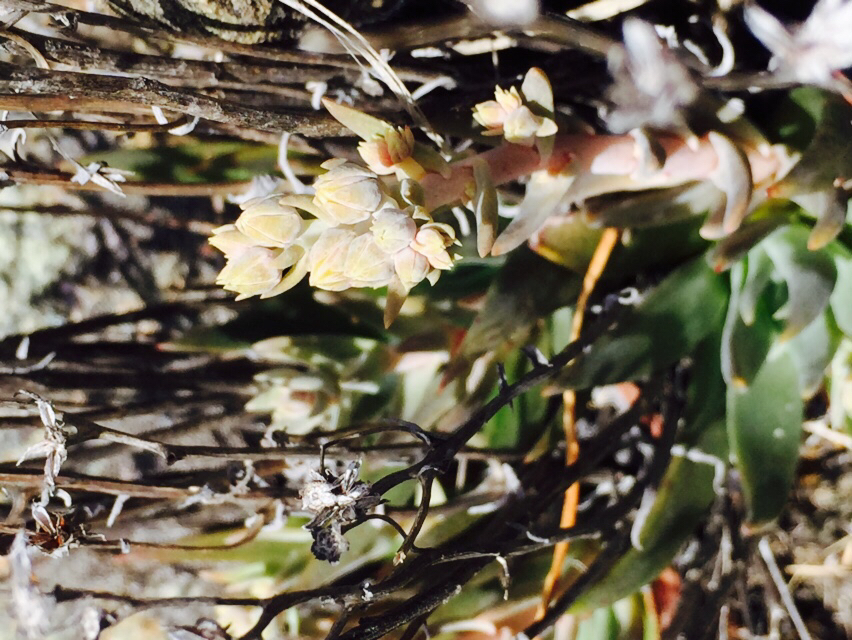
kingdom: Plantae
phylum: Tracheophyta
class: Magnoliopsida
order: Saxifragales
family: Crassulaceae
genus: Dudleya
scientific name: Dudleya abramsii
